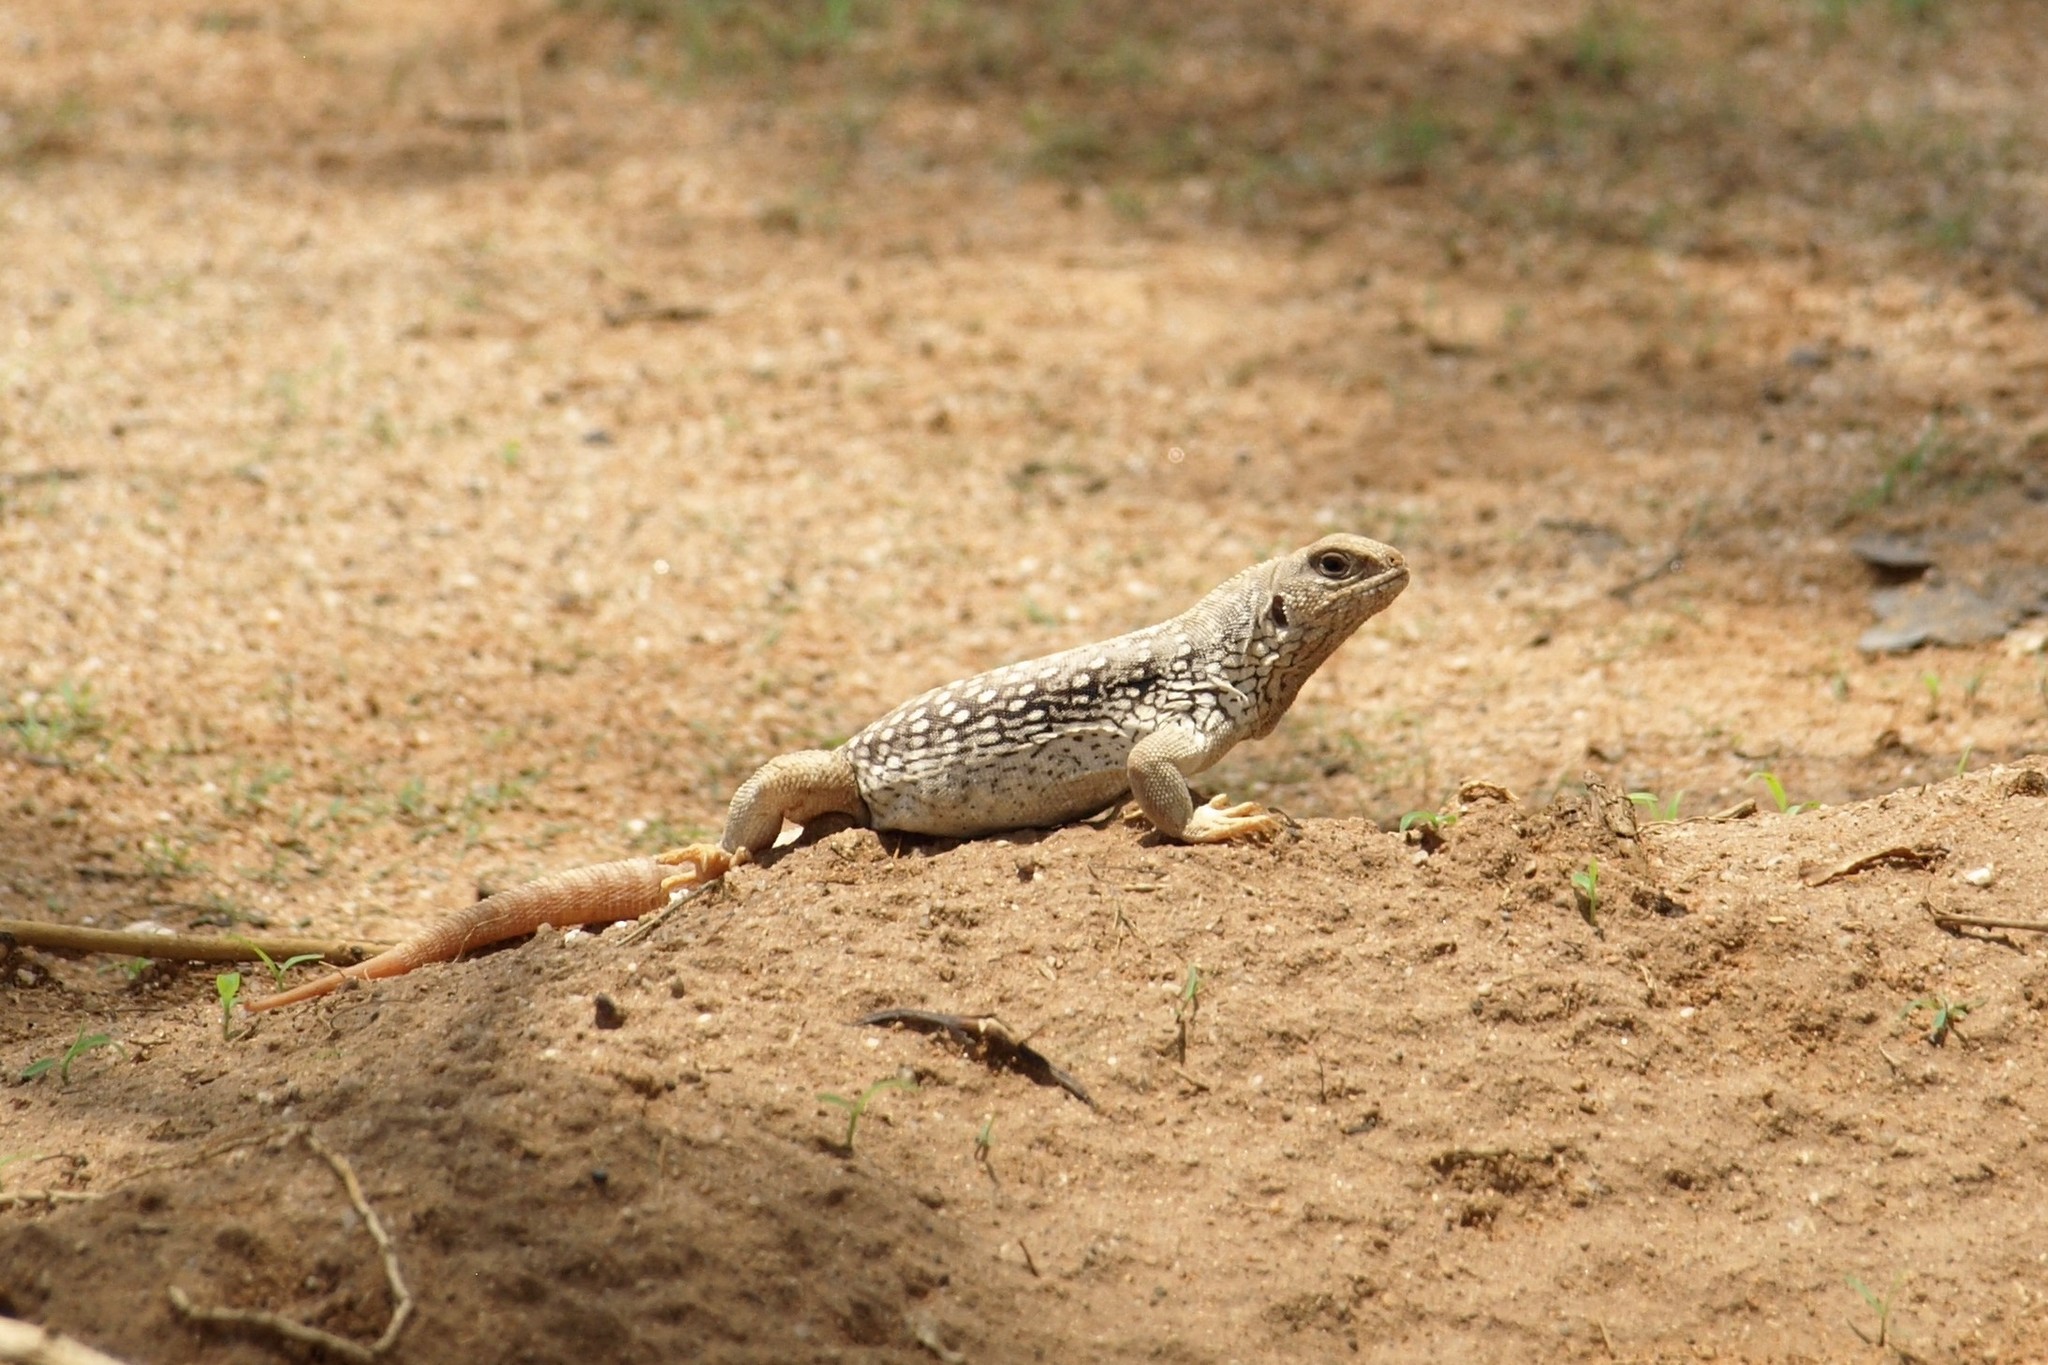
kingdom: Animalia
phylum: Chordata
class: Squamata
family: Iguanidae
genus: Dipsosaurus
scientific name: Dipsosaurus dorsalis
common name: Desert iguana
